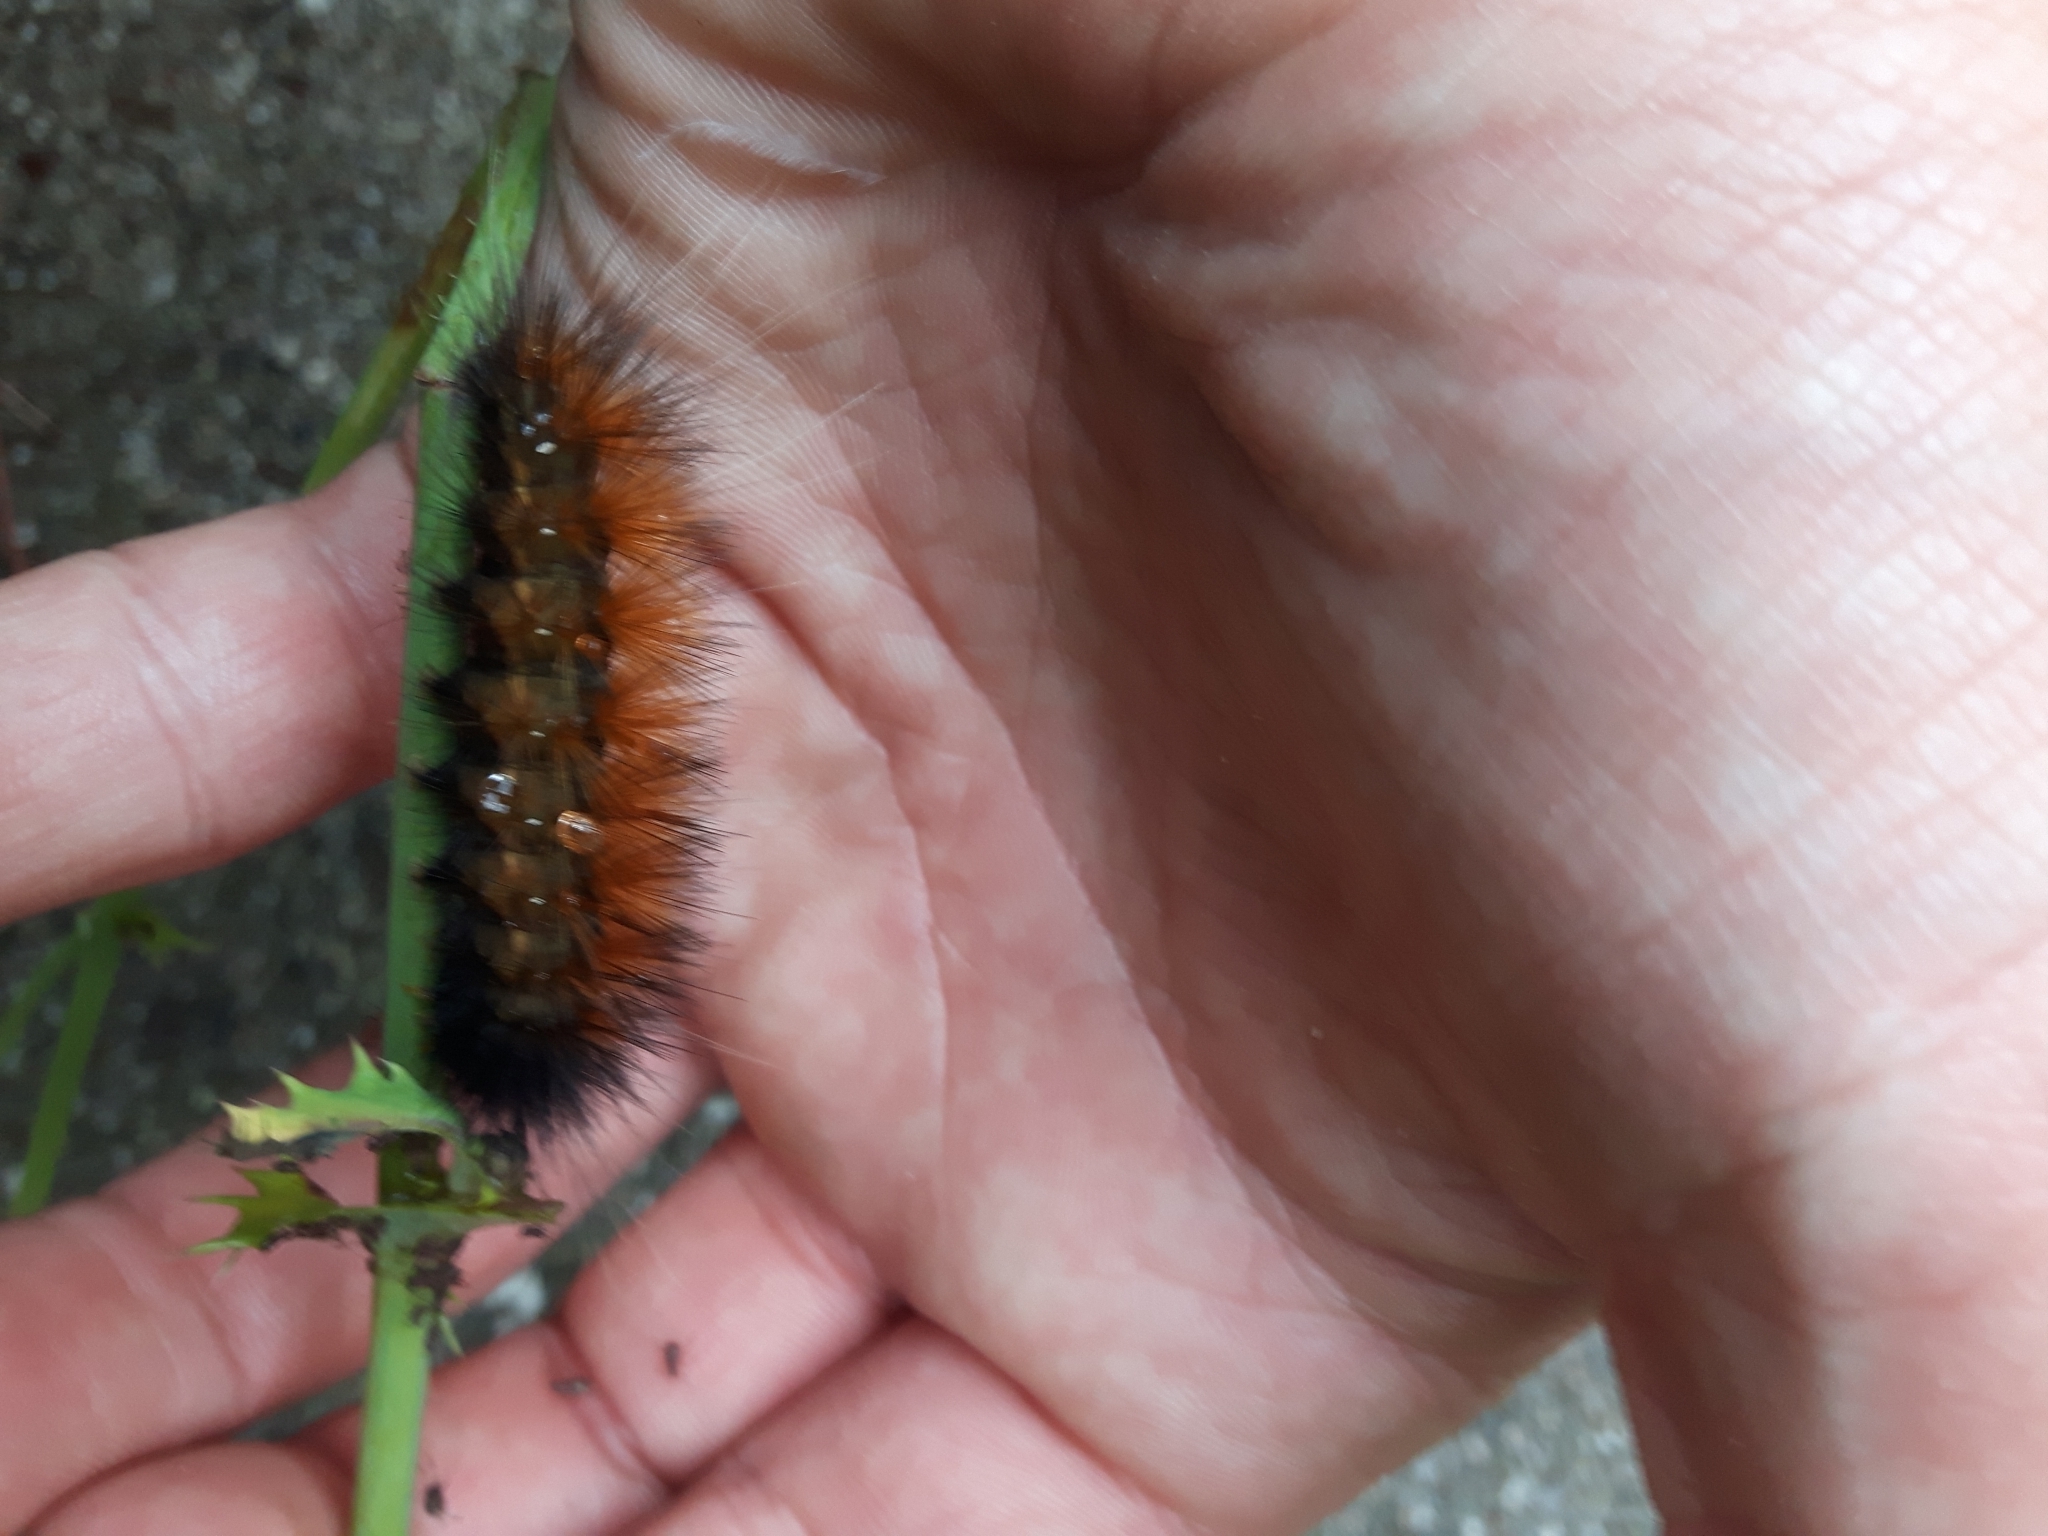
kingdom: Animalia
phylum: Arthropoda
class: Insecta
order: Lepidoptera
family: Erebidae
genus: Spilosoma
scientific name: Spilosoma virginica
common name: Virginia tiger moth
